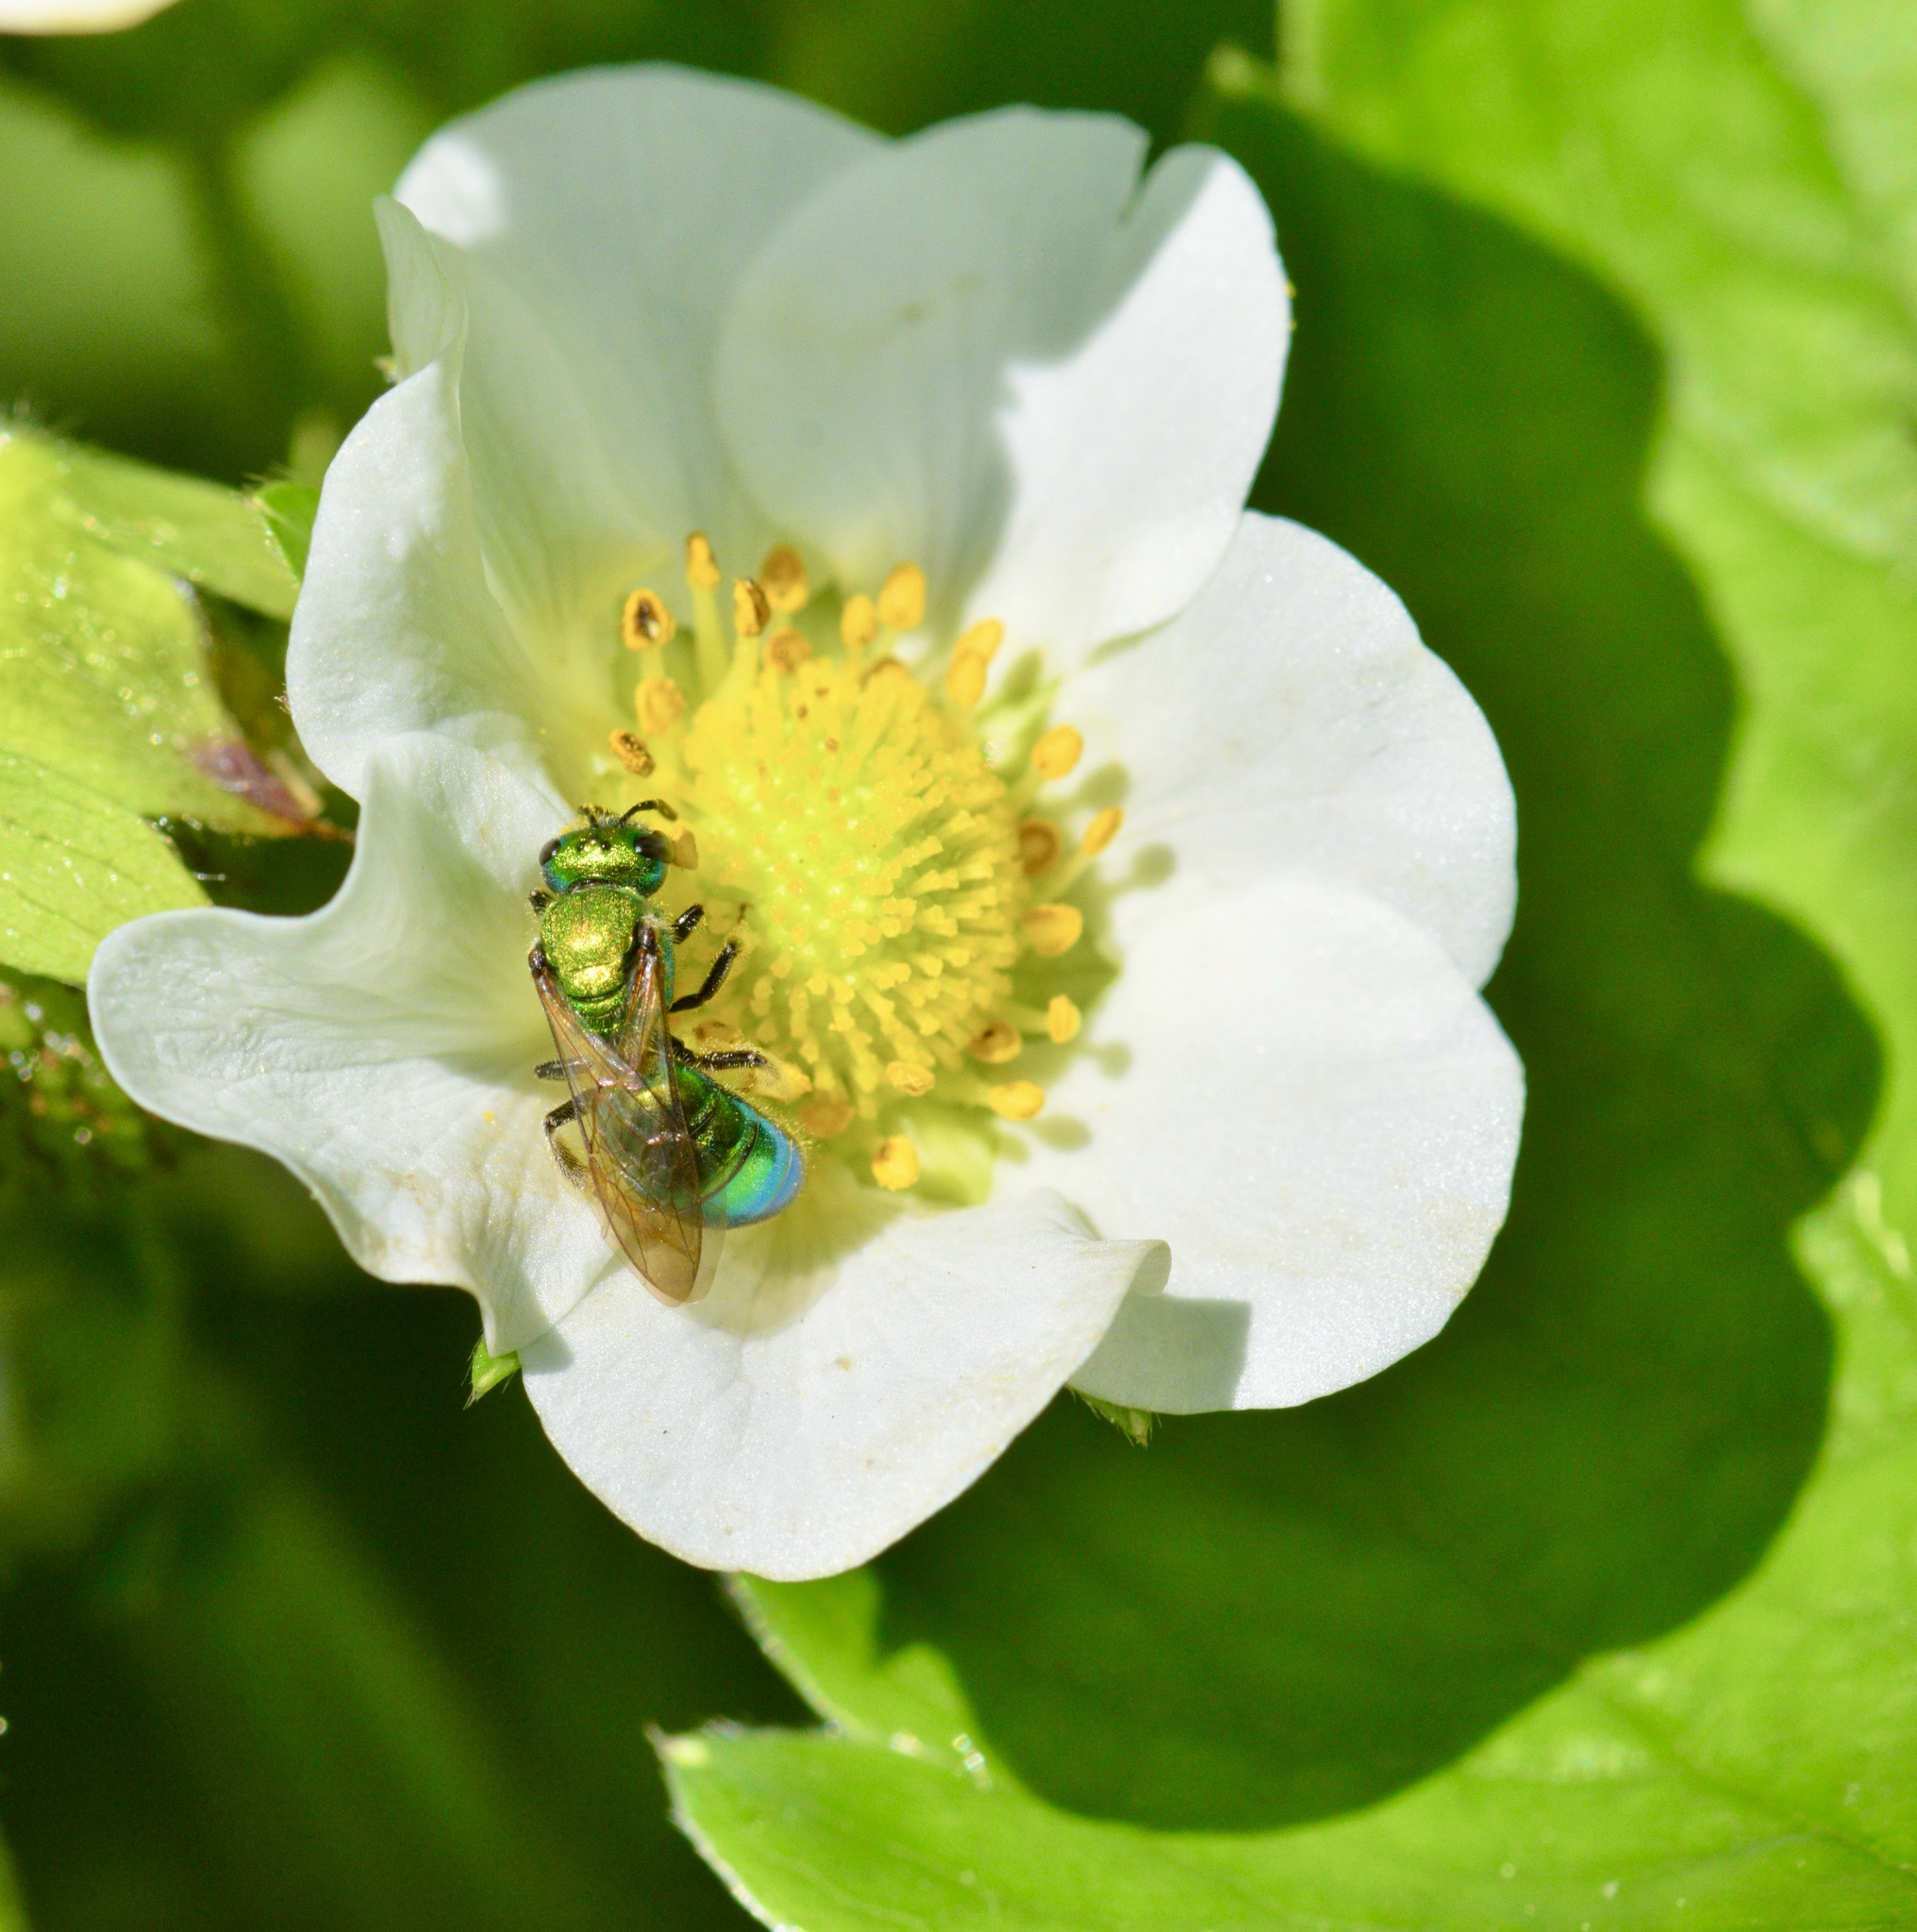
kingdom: Animalia
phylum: Arthropoda
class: Insecta
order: Hymenoptera
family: Halictidae
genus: Augochlora
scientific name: Augochlora pura
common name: Pure green sweat bee
